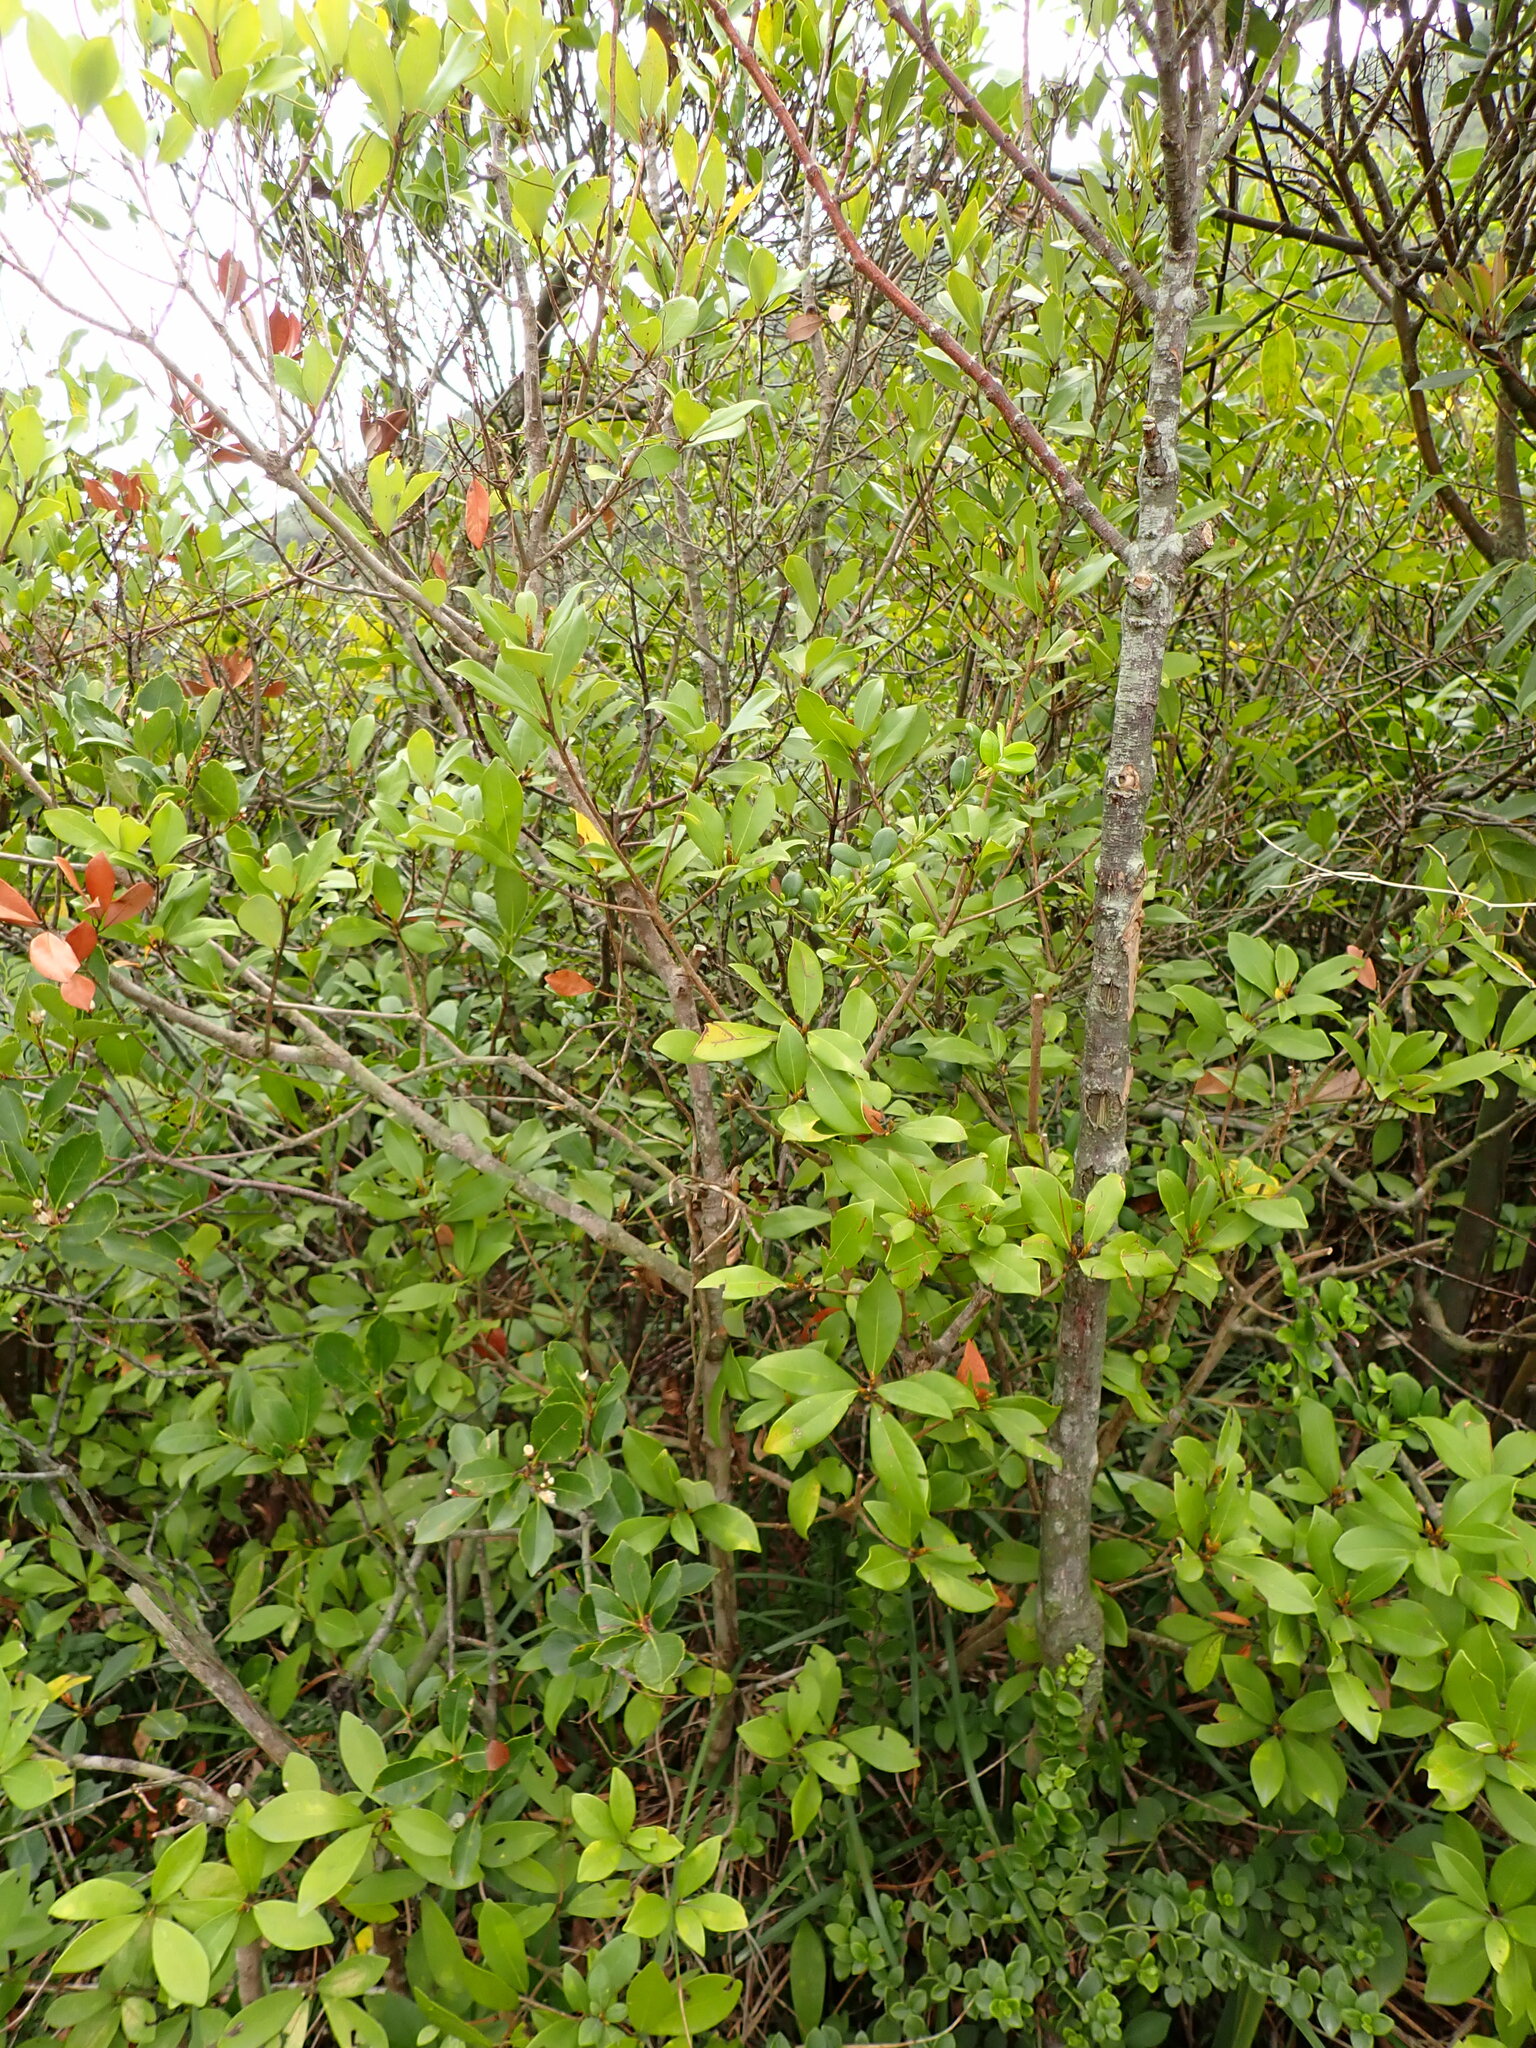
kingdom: Plantae
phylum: Tracheophyta
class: Magnoliopsida
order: Rosales
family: Rosaceae
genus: Rhaphiolepis
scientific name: Rhaphiolepis indica
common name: India-hawthorn
